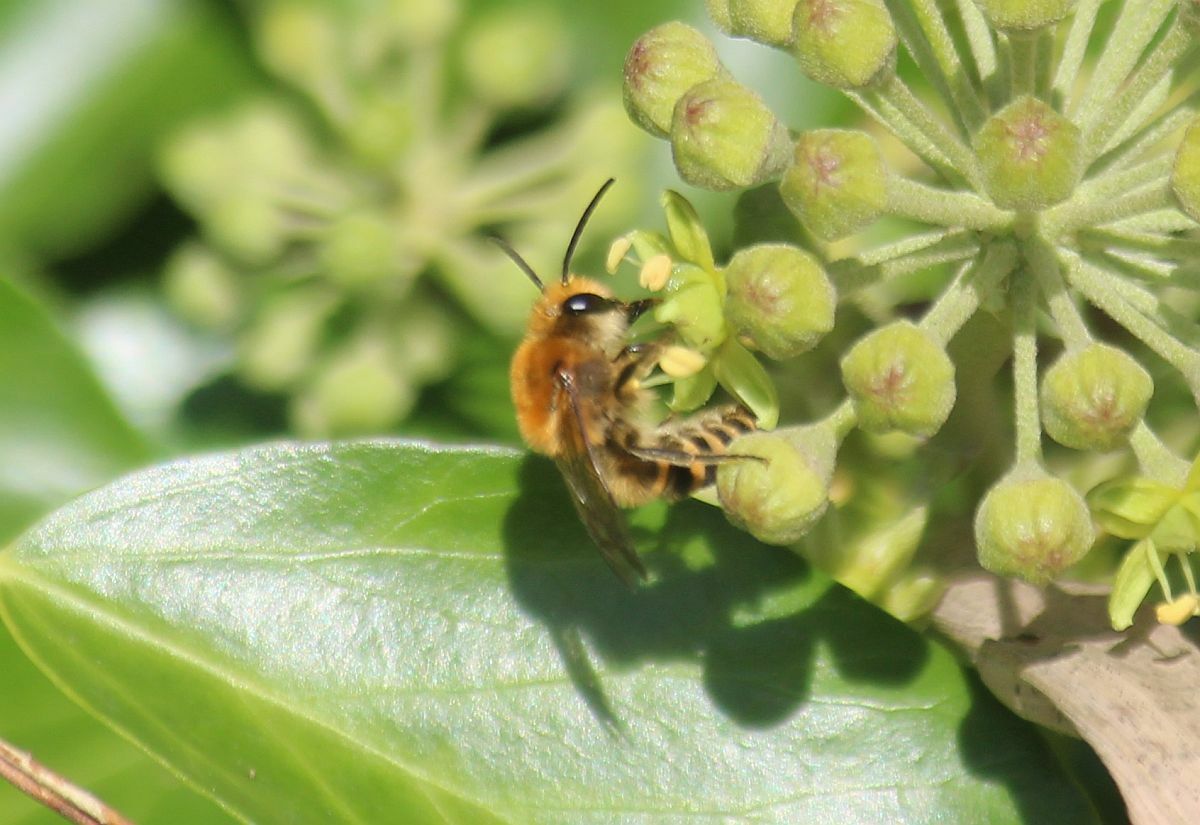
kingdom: Animalia
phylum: Arthropoda
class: Insecta
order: Hymenoptera
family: Colletidae
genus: Colletes
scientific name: Colletes hederae
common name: Ivy bee
